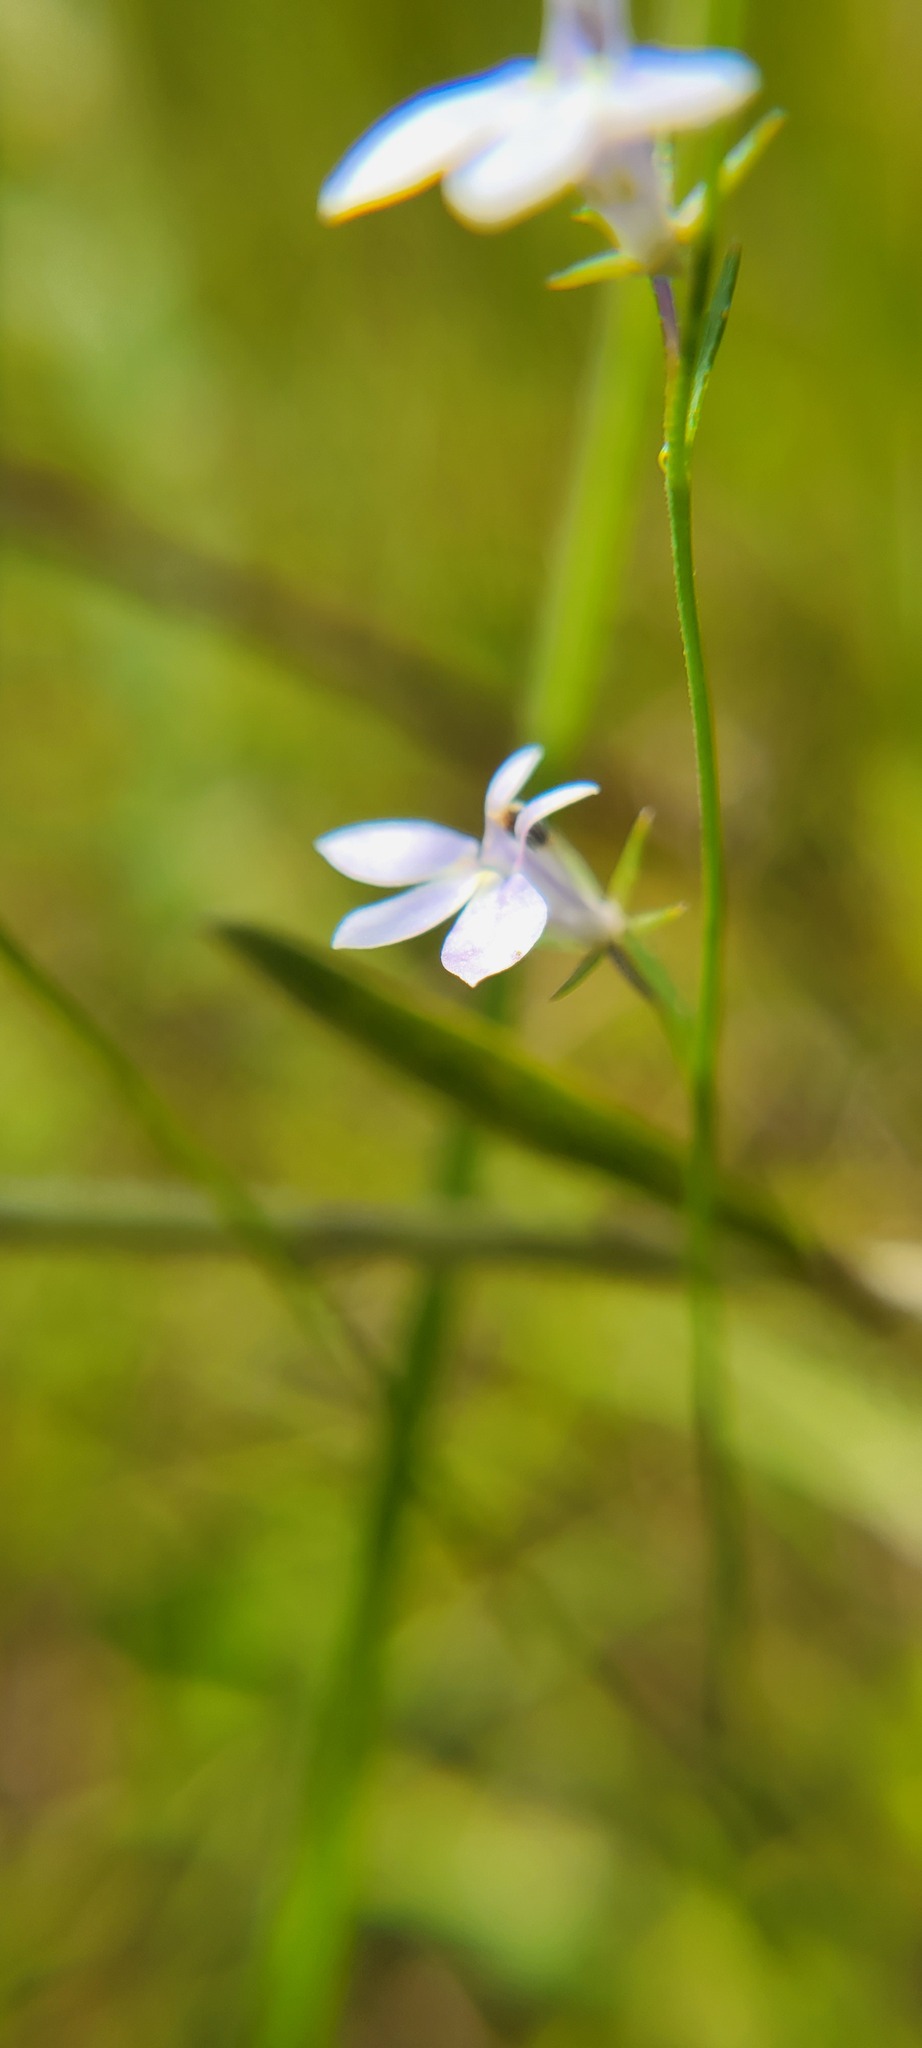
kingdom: Plantae
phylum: Tracheophyta
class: Magnoliopsida
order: Asterales
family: Campanulaceae
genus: Lobelia
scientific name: Lobelia nuttallii
